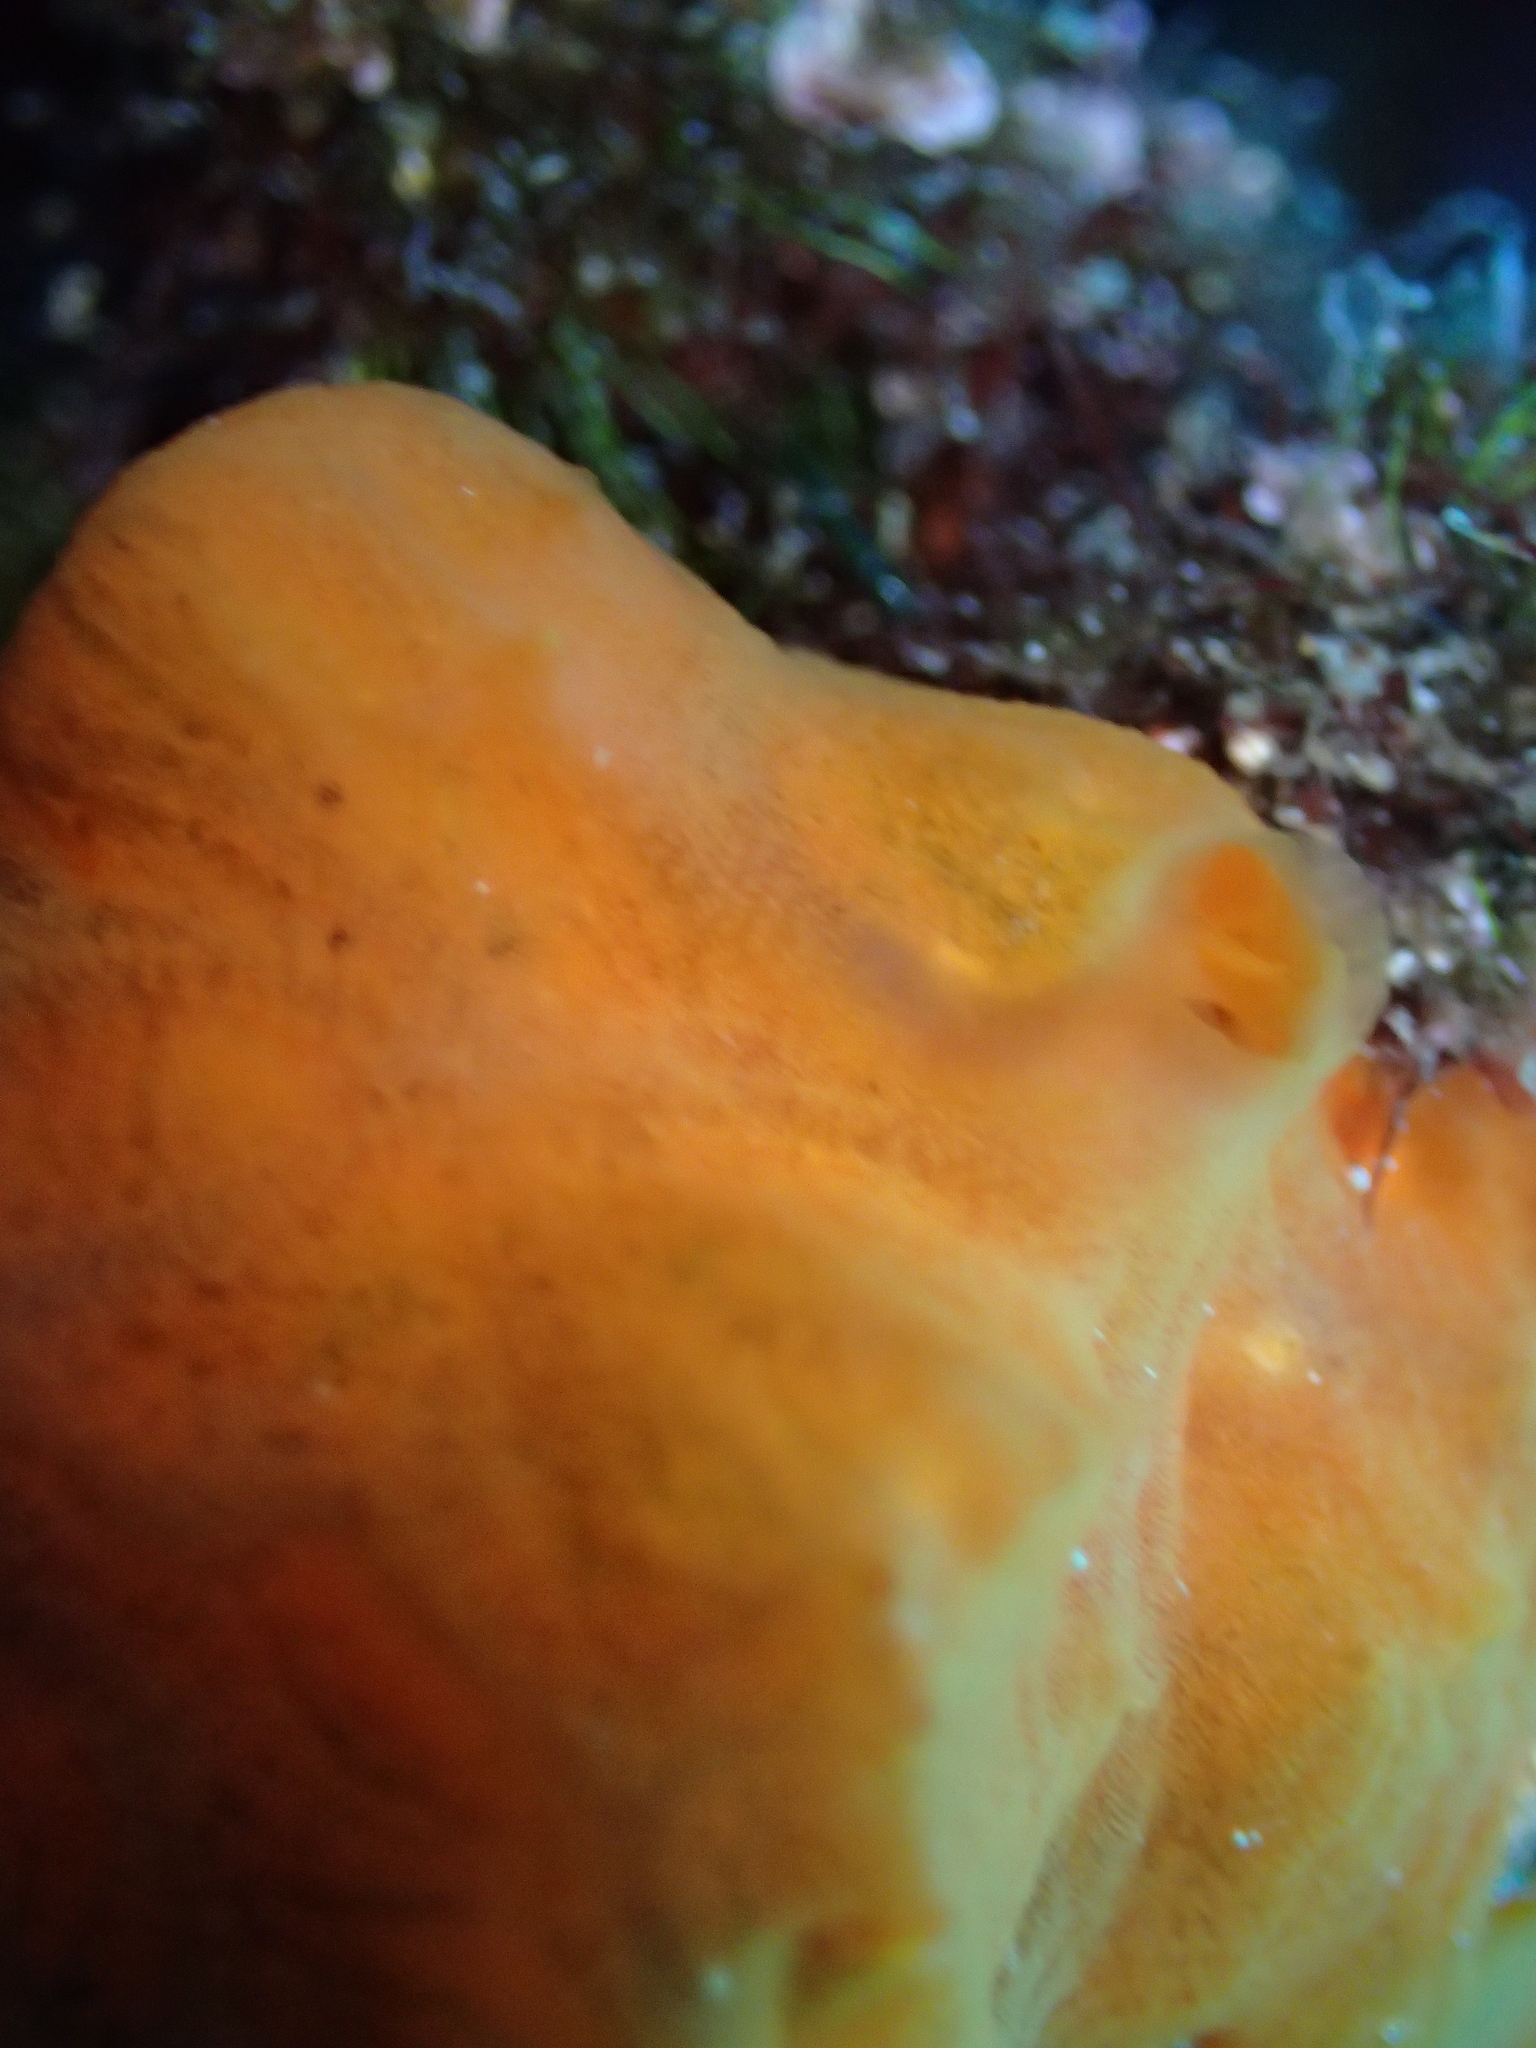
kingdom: Animalia
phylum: Porifera
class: Demospongiae
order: Poecilosclerida
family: Crambeidae
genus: Crambe
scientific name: Crambe crambe
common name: Orange-red encrusting sponge
